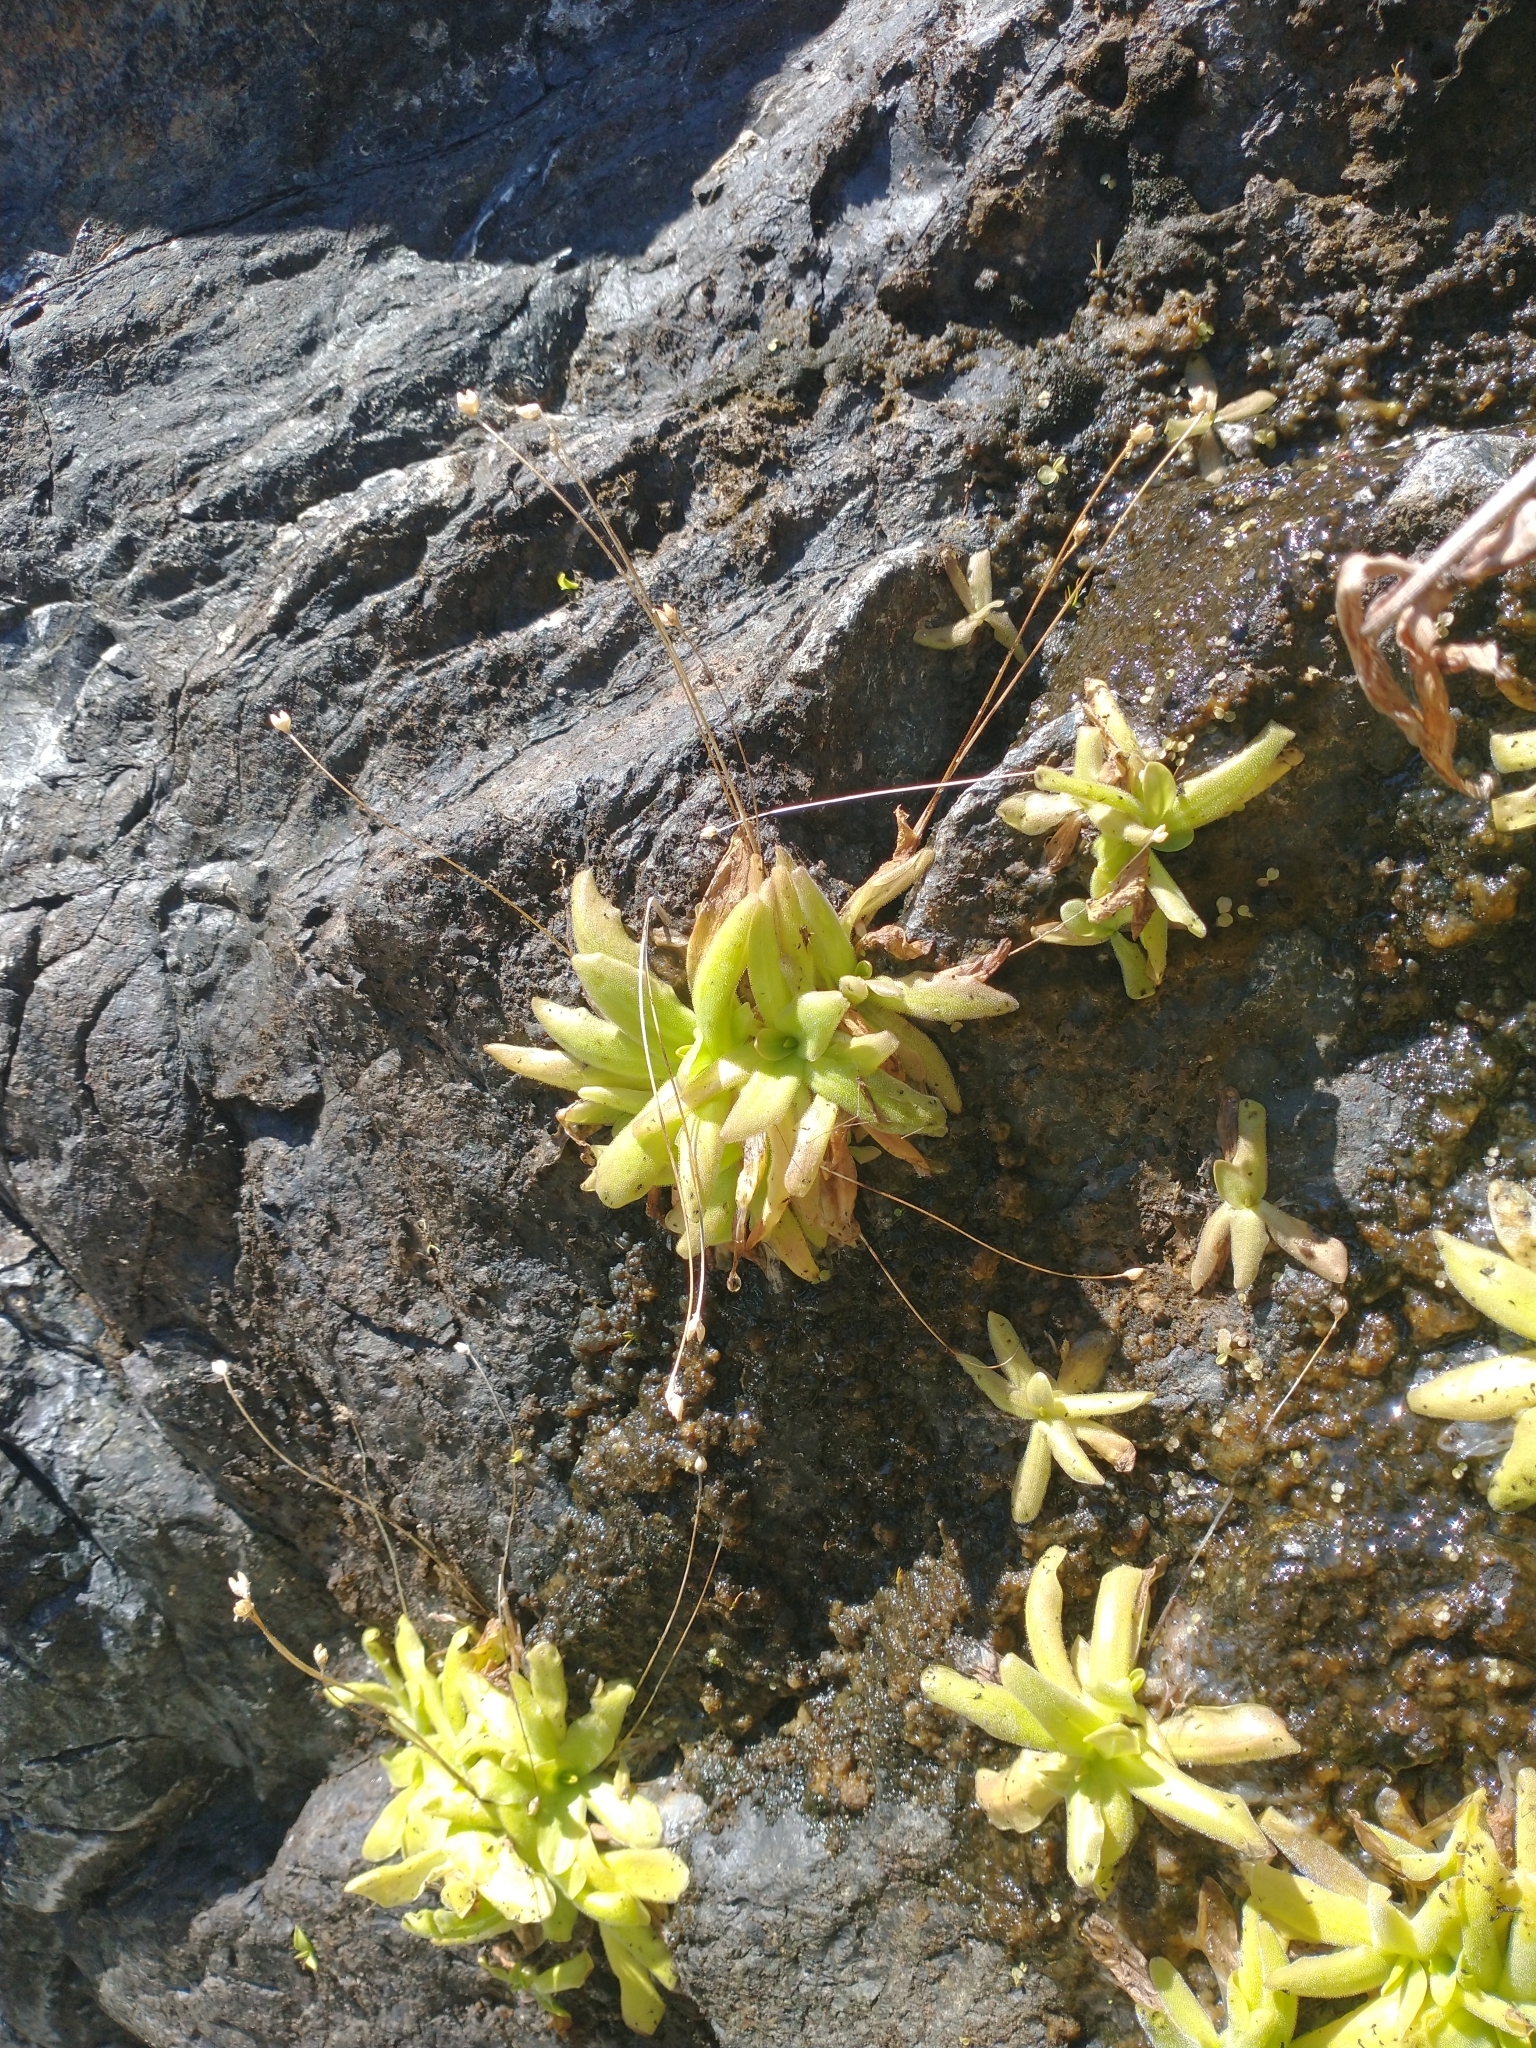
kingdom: Plantae
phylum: Tracheophyta
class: Magnoliopsida
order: Lamiales
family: Lentibulariaceae
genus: Pinguicula
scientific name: Pinguicula macroceras
